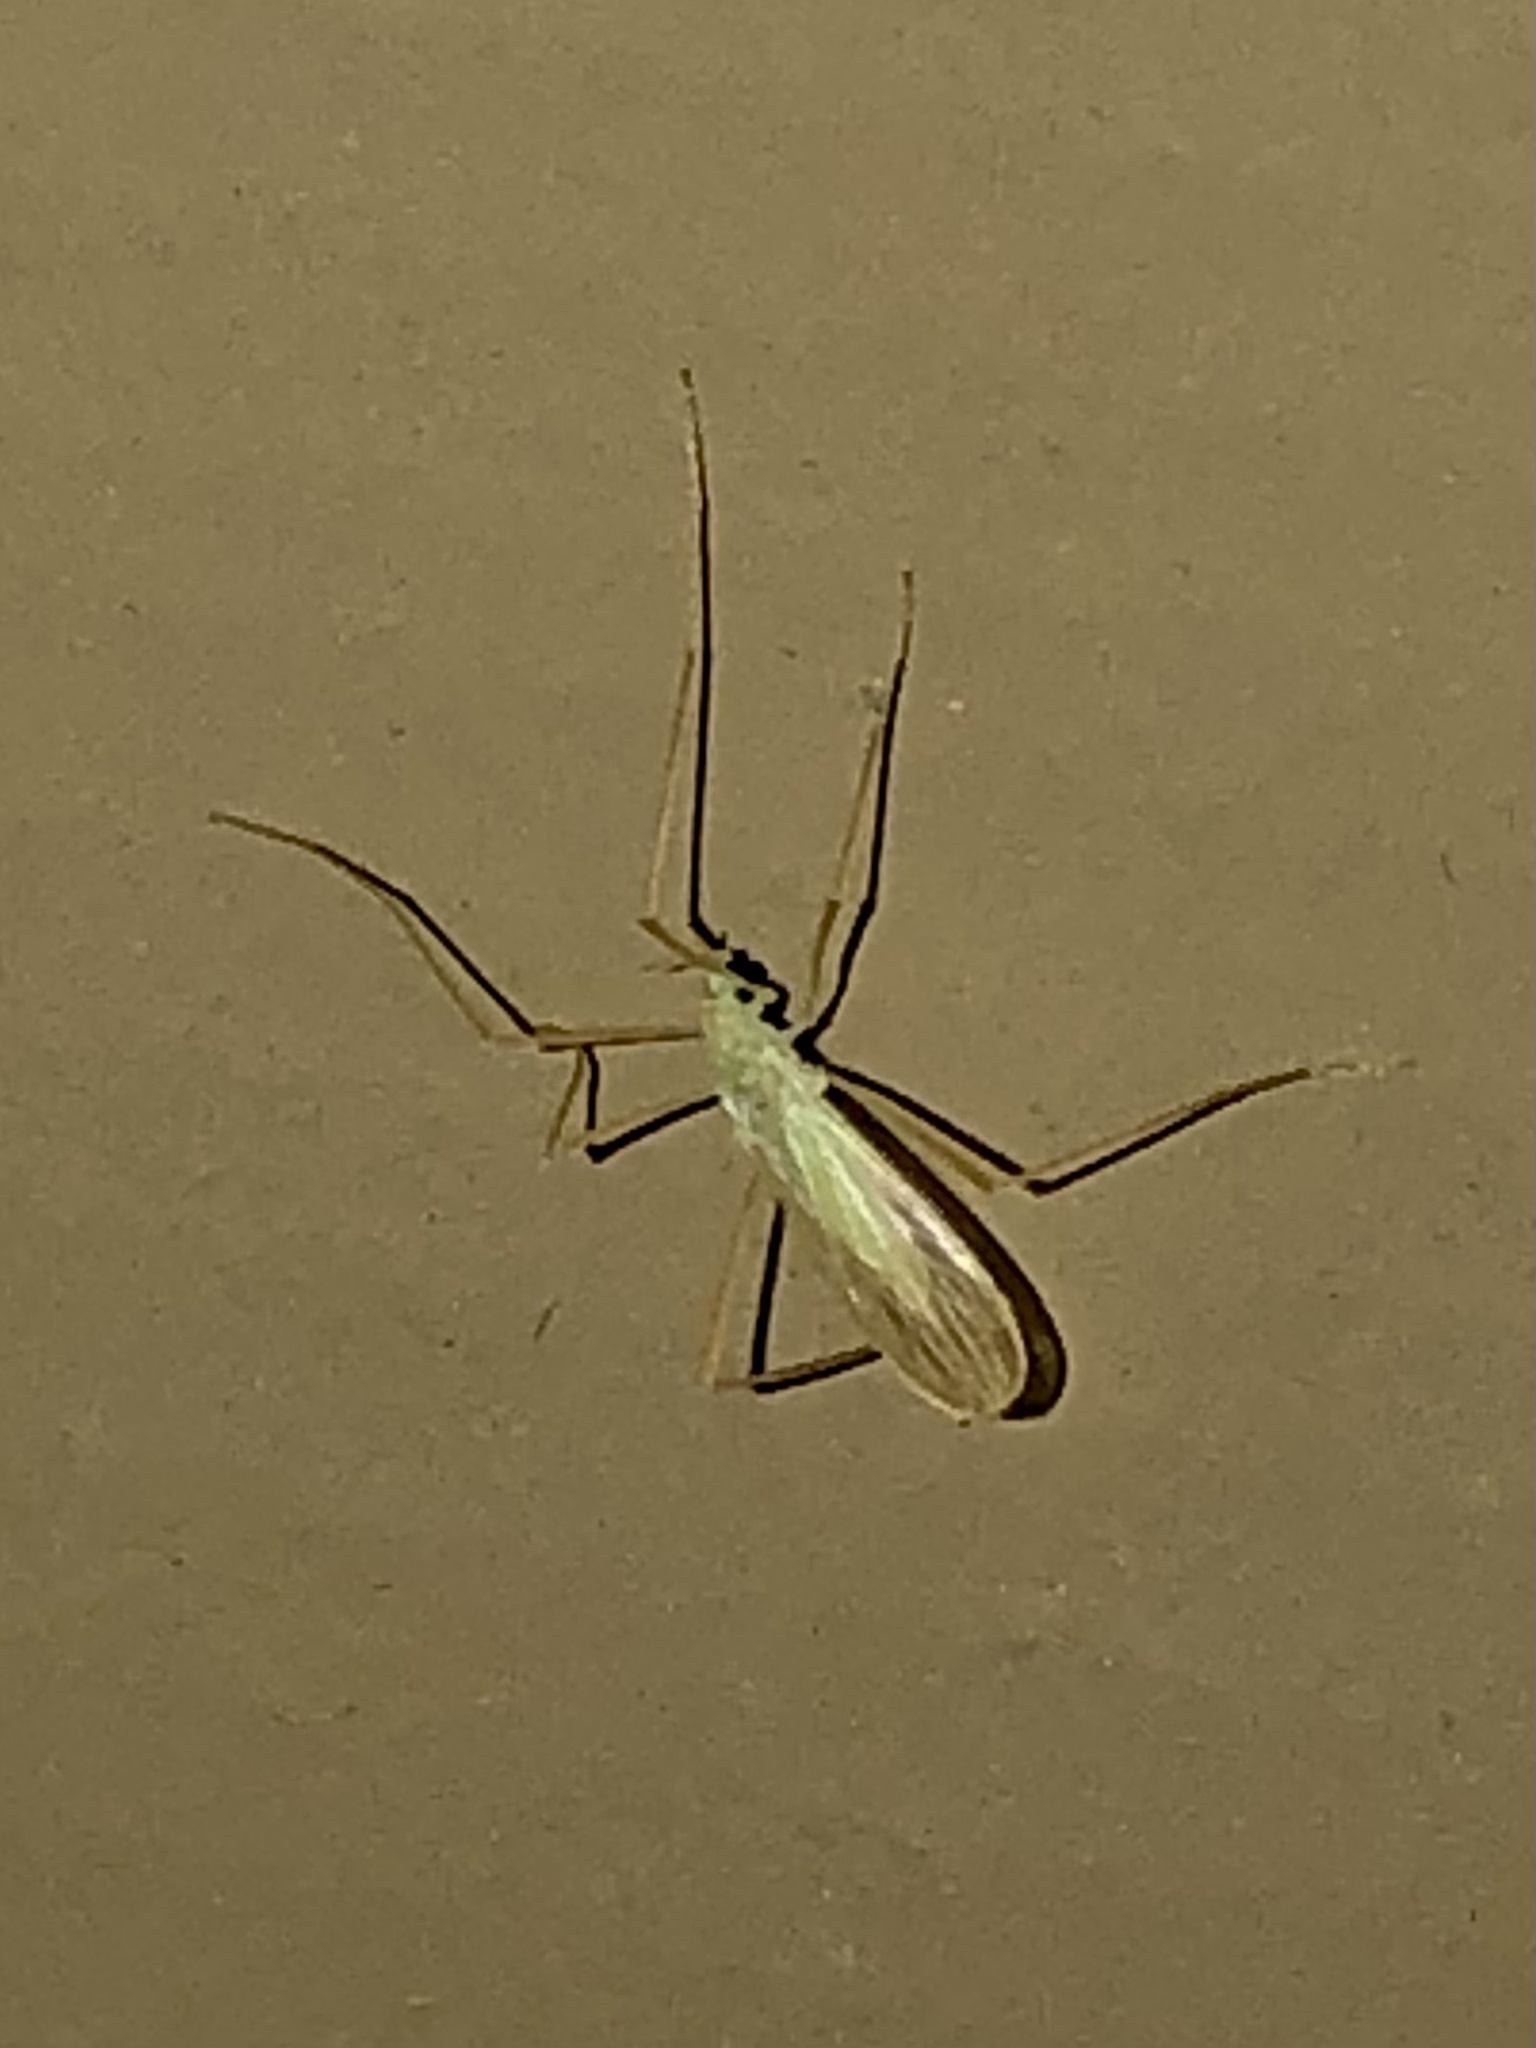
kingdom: Animalia
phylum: Arthropoda
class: Insecta
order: Diptera
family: Limoniidae
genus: Erioptera
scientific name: Erioptera
